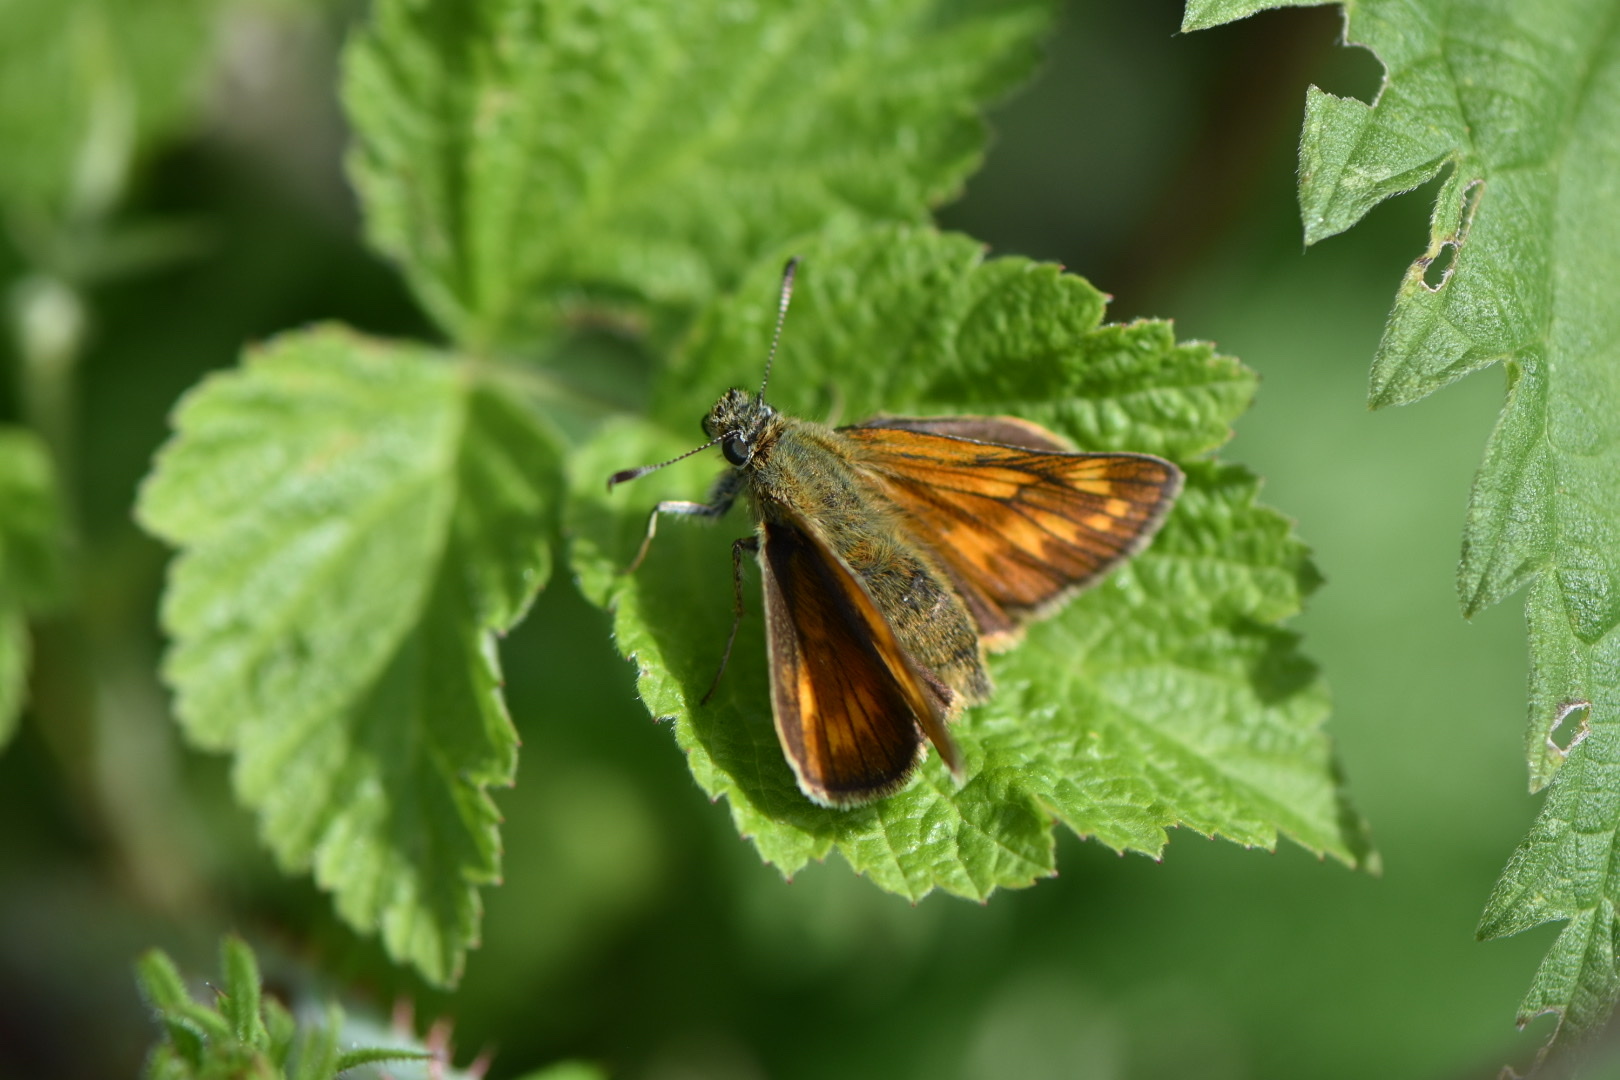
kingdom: Animalia
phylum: Arthropoda
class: Insecta
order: Lepidoptera
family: Hesperiidae
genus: Ochlodes
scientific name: Ochlodes venata
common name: Large skipper
